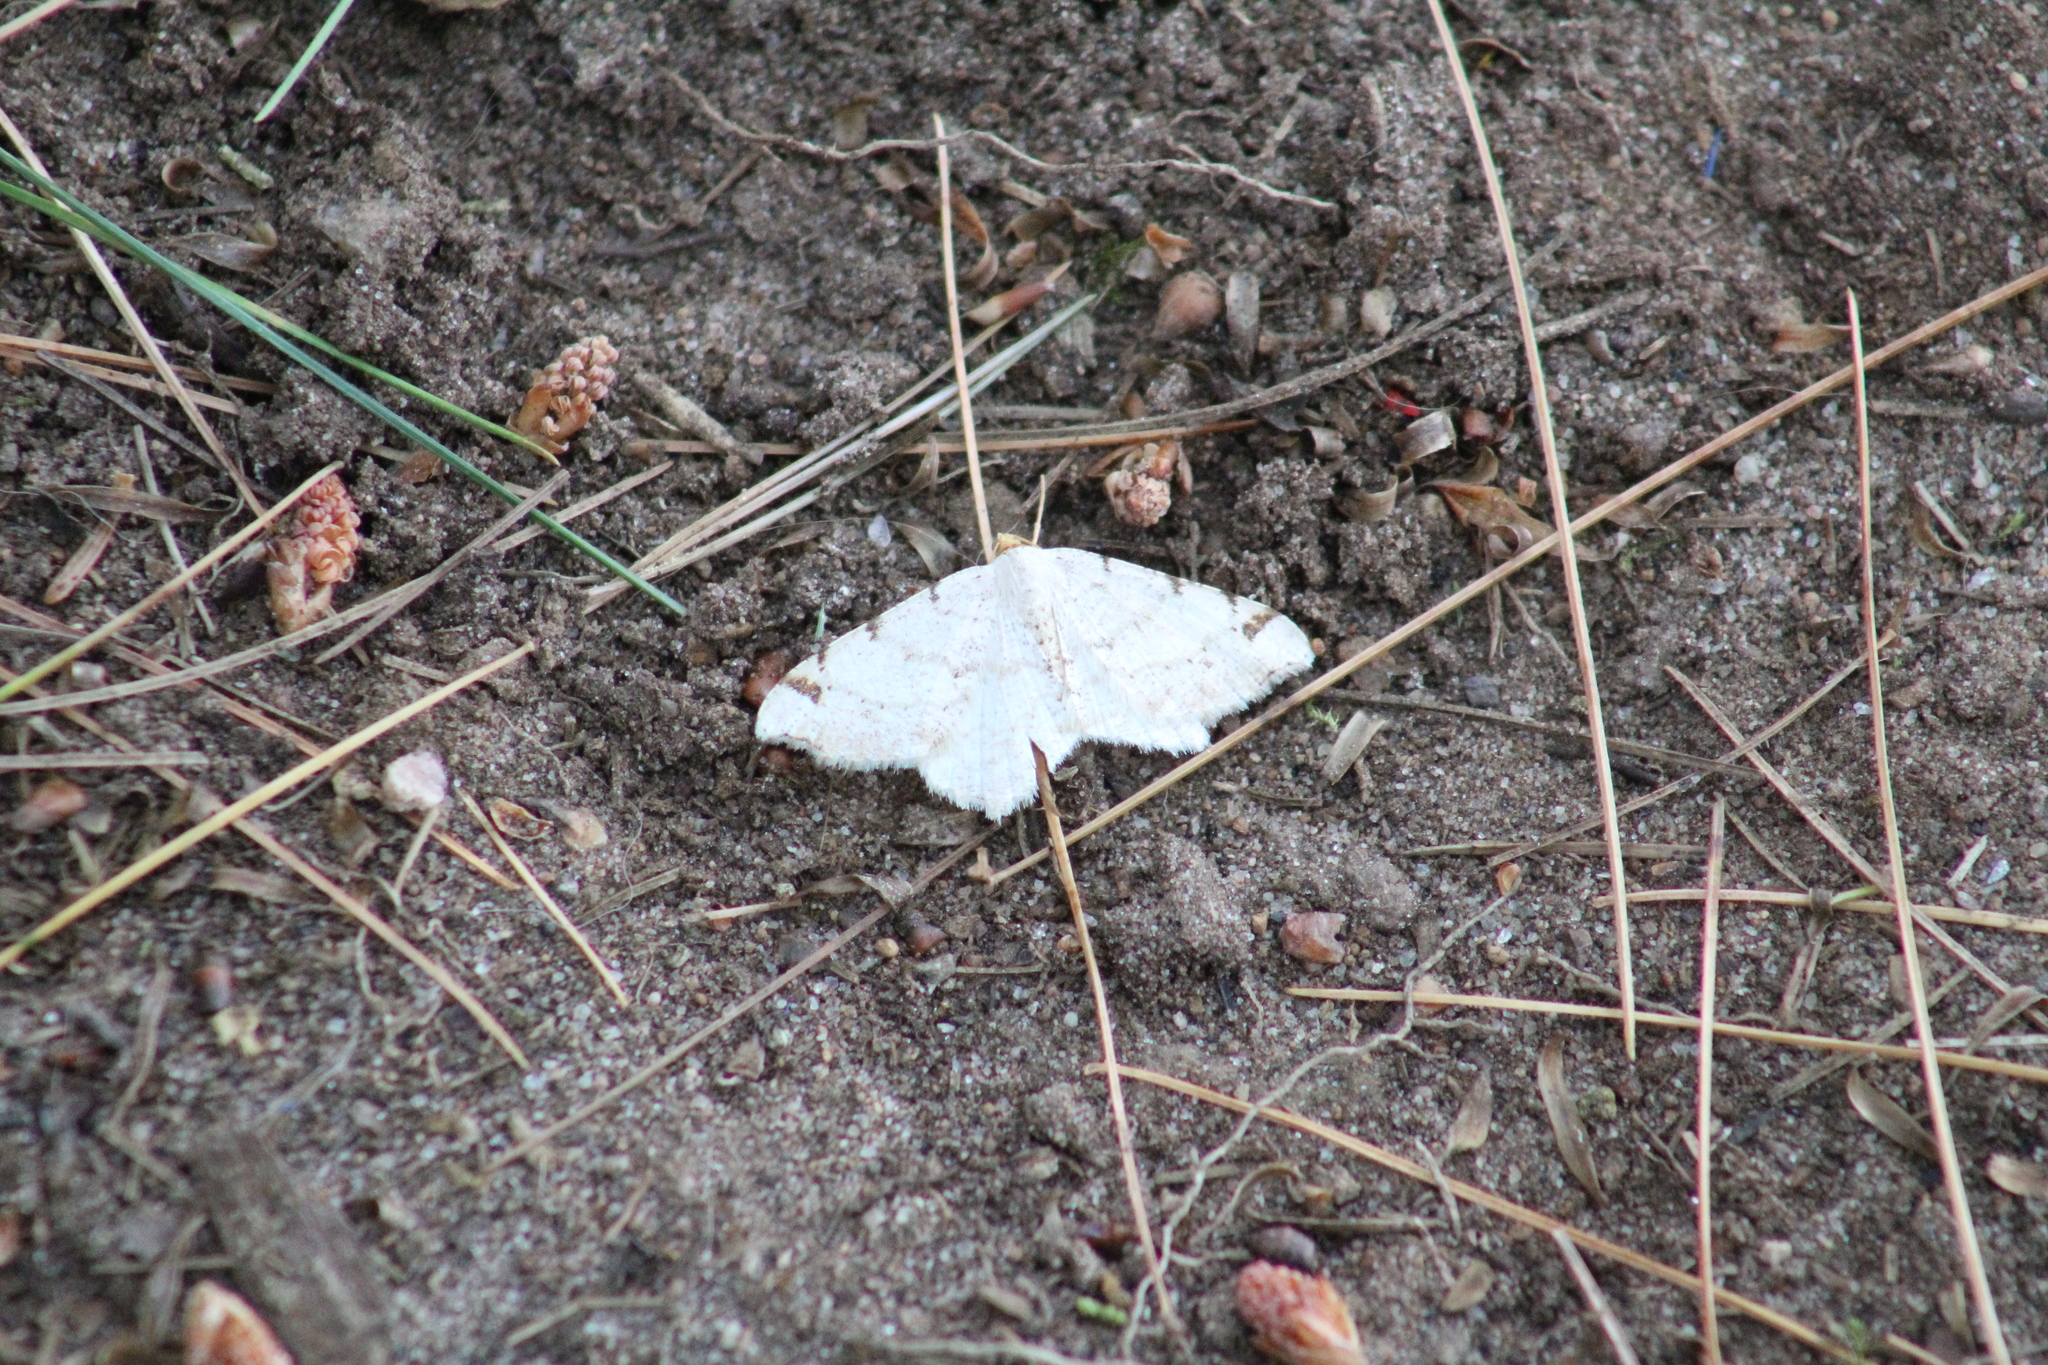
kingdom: Animalia
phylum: Arthropoda
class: Insecta
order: Lepidoptera
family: Geometridae
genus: Macaria
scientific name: Macaria pustularia
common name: Lesser maple spanworm moth
